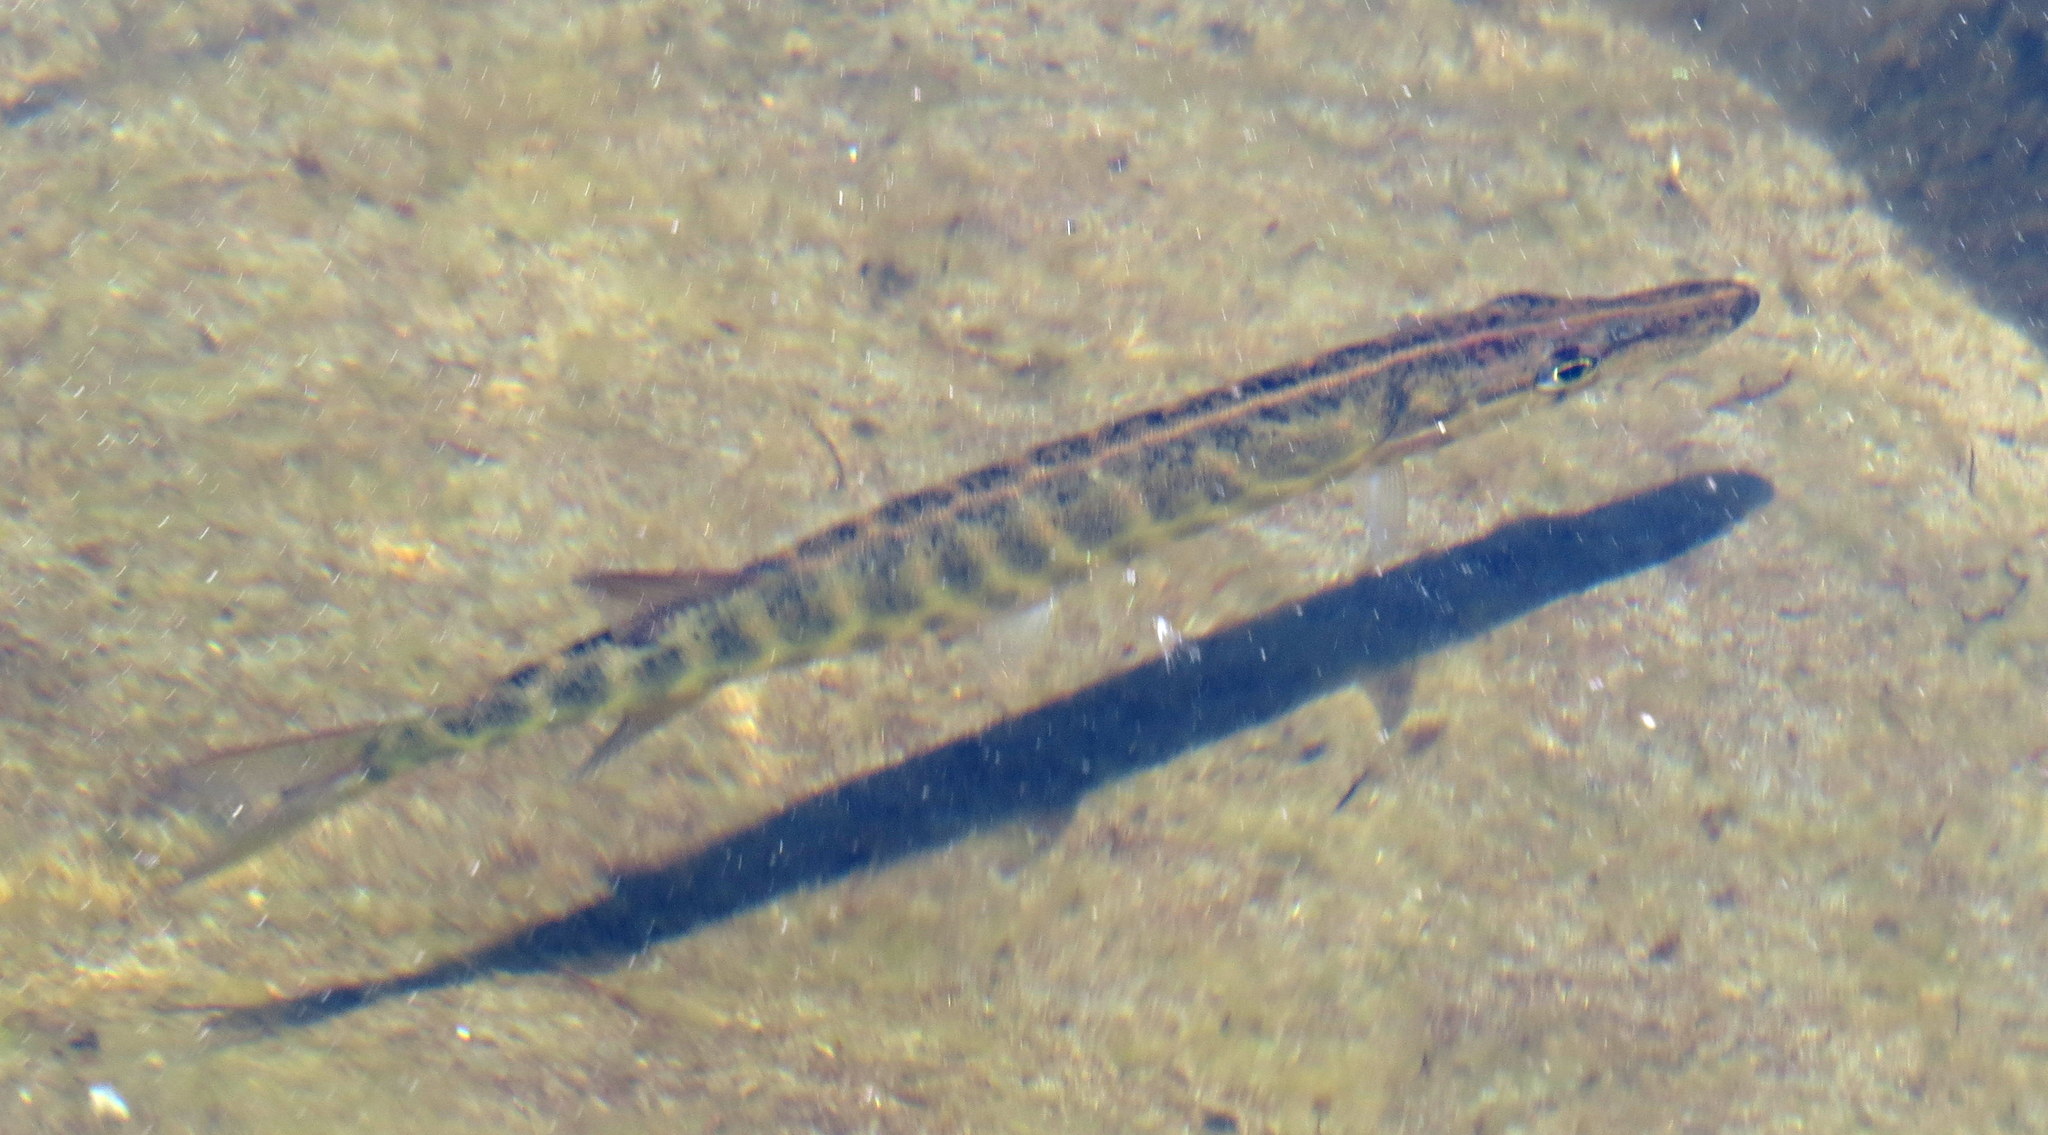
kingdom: Animalia
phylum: Chordata
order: Esociformes
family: Esocidae
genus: Esox
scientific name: Esox niger
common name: Chain pickerel
